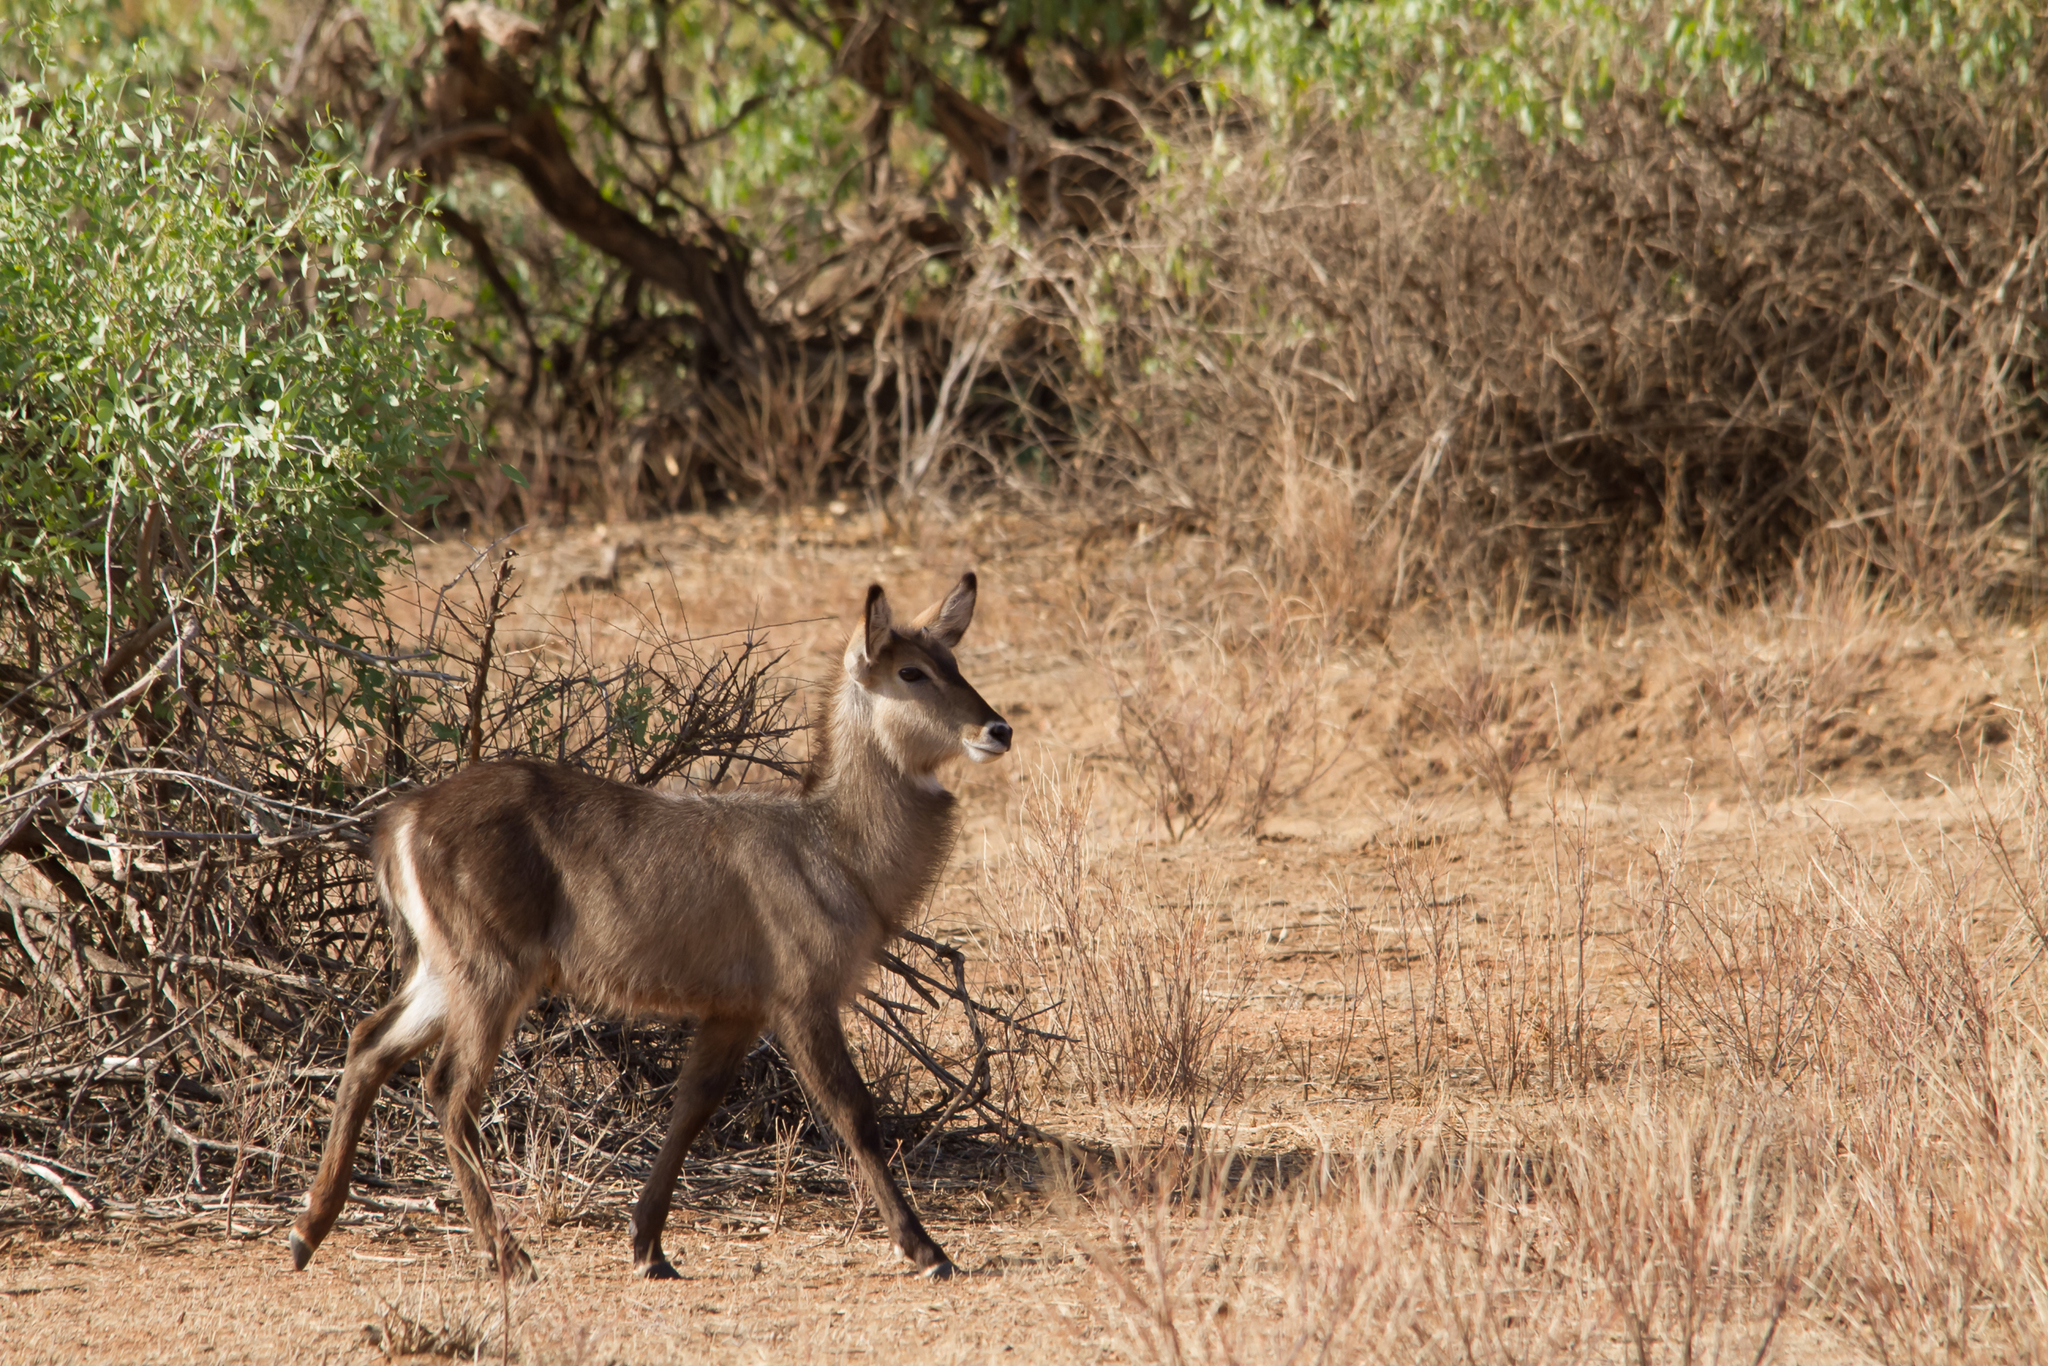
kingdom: Animalia
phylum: Chordata
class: Mammalia
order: Artiodactyla
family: Bovidae
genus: Kobus
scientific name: Kobus ellipsiprymnus
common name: Waterbuck
